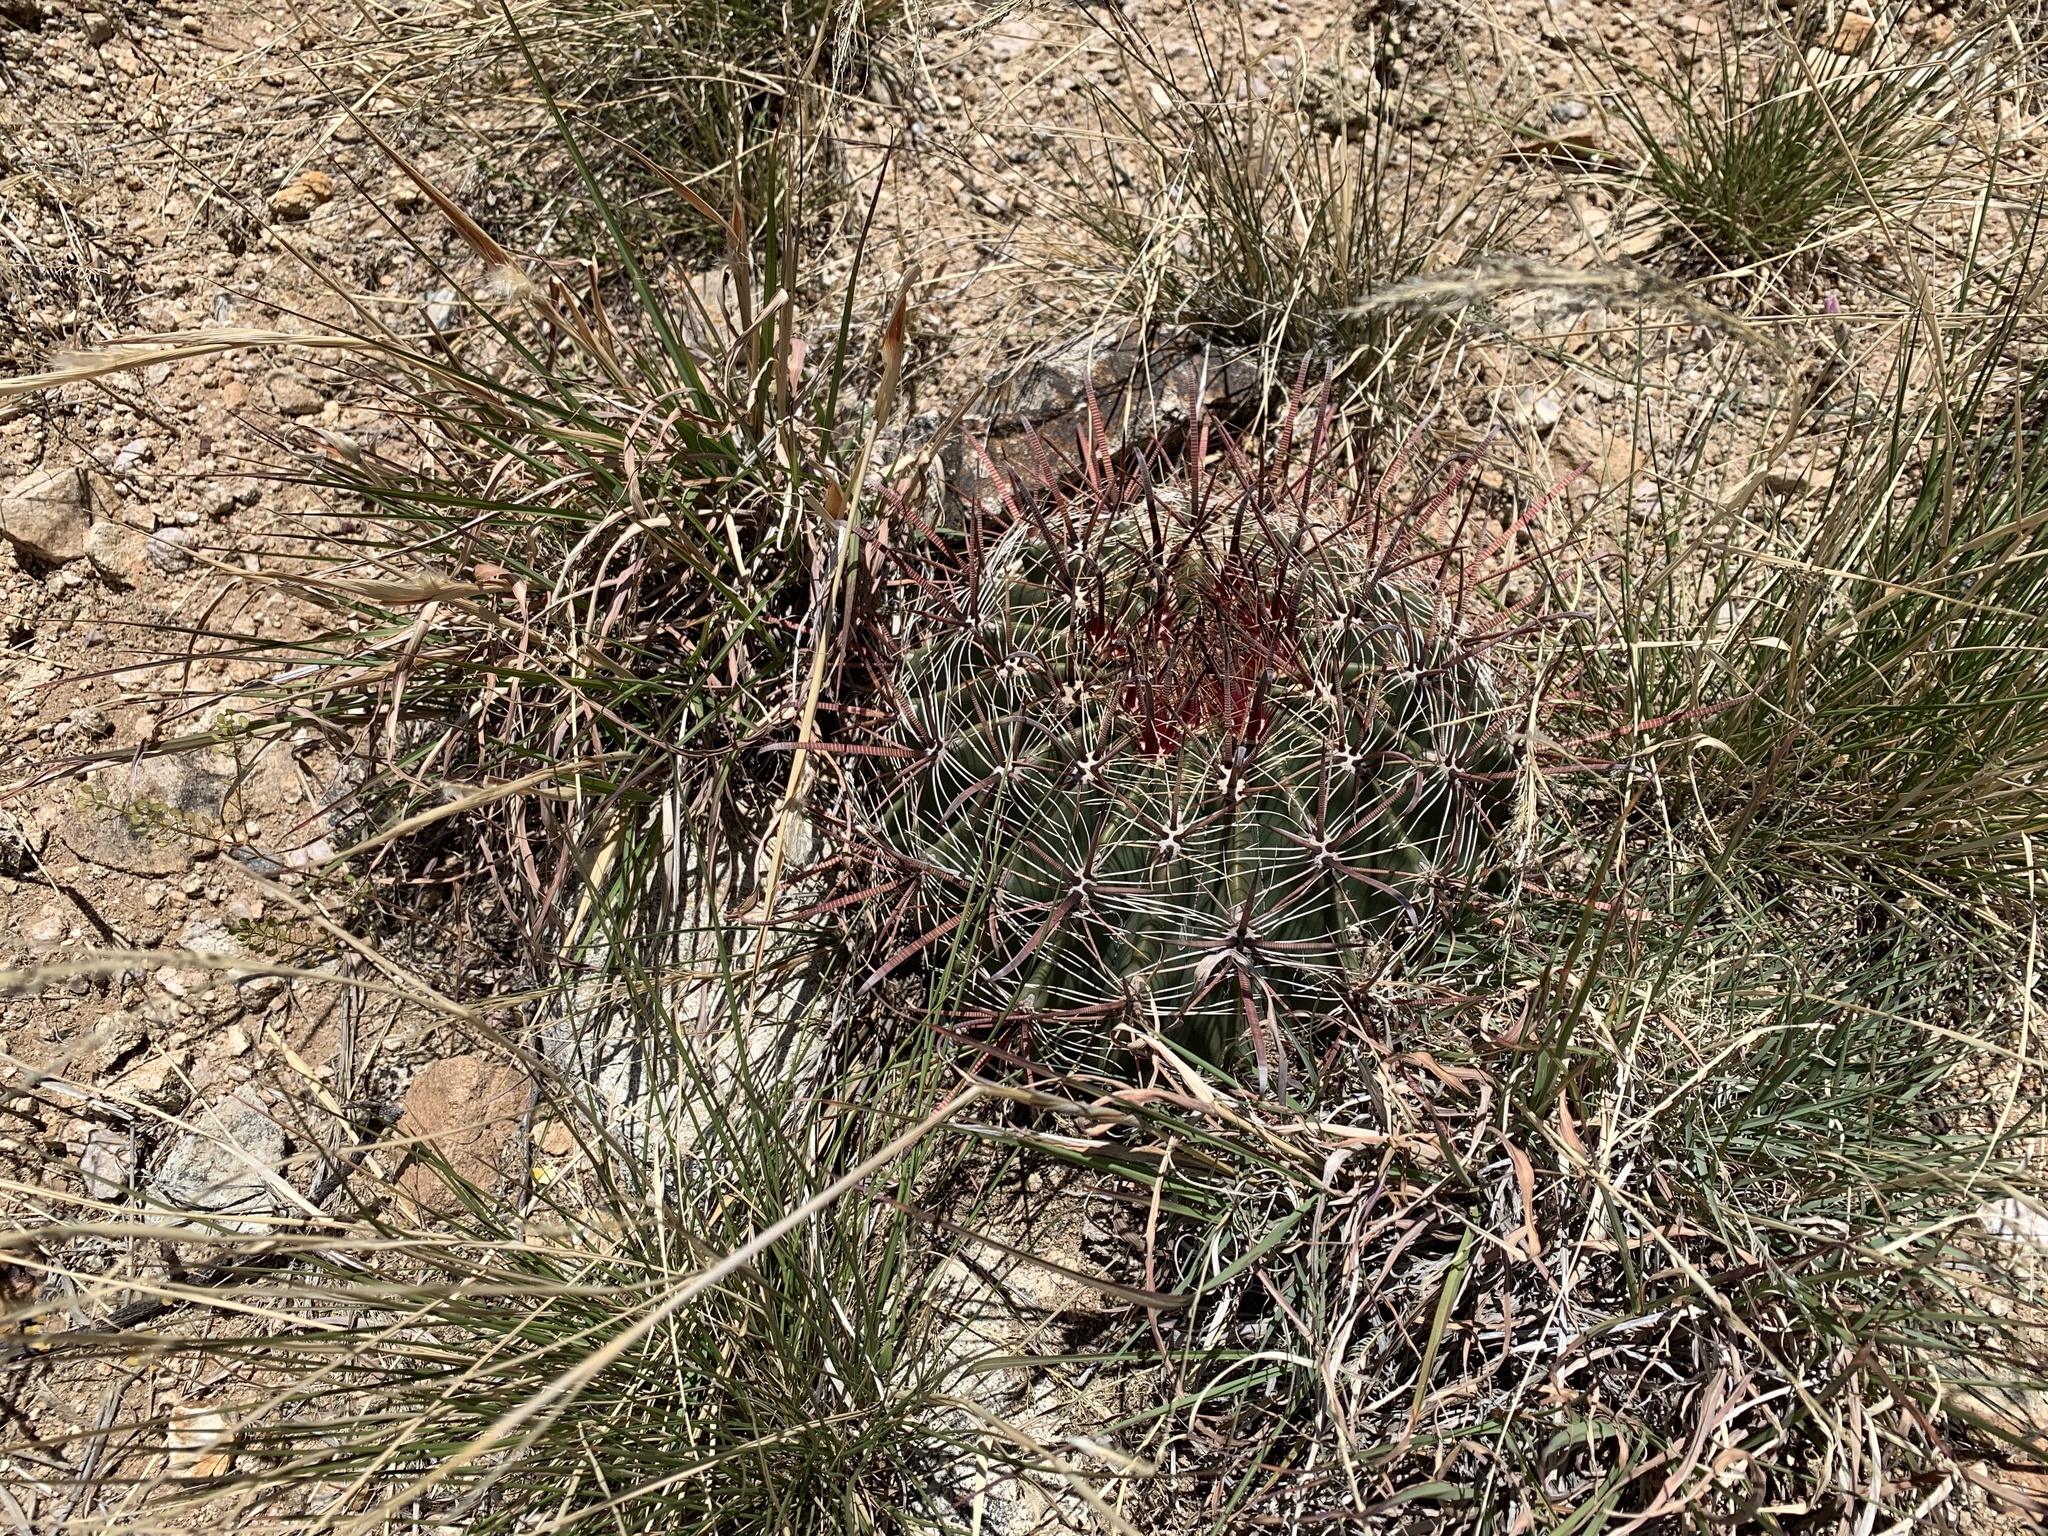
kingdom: Plantae
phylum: Tracheophyta
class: Magnoliopsida
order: Caryophyllales
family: Cactaceae
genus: Ferocactus
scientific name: Ferocactus wislizeni
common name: Candy barrel cactus
